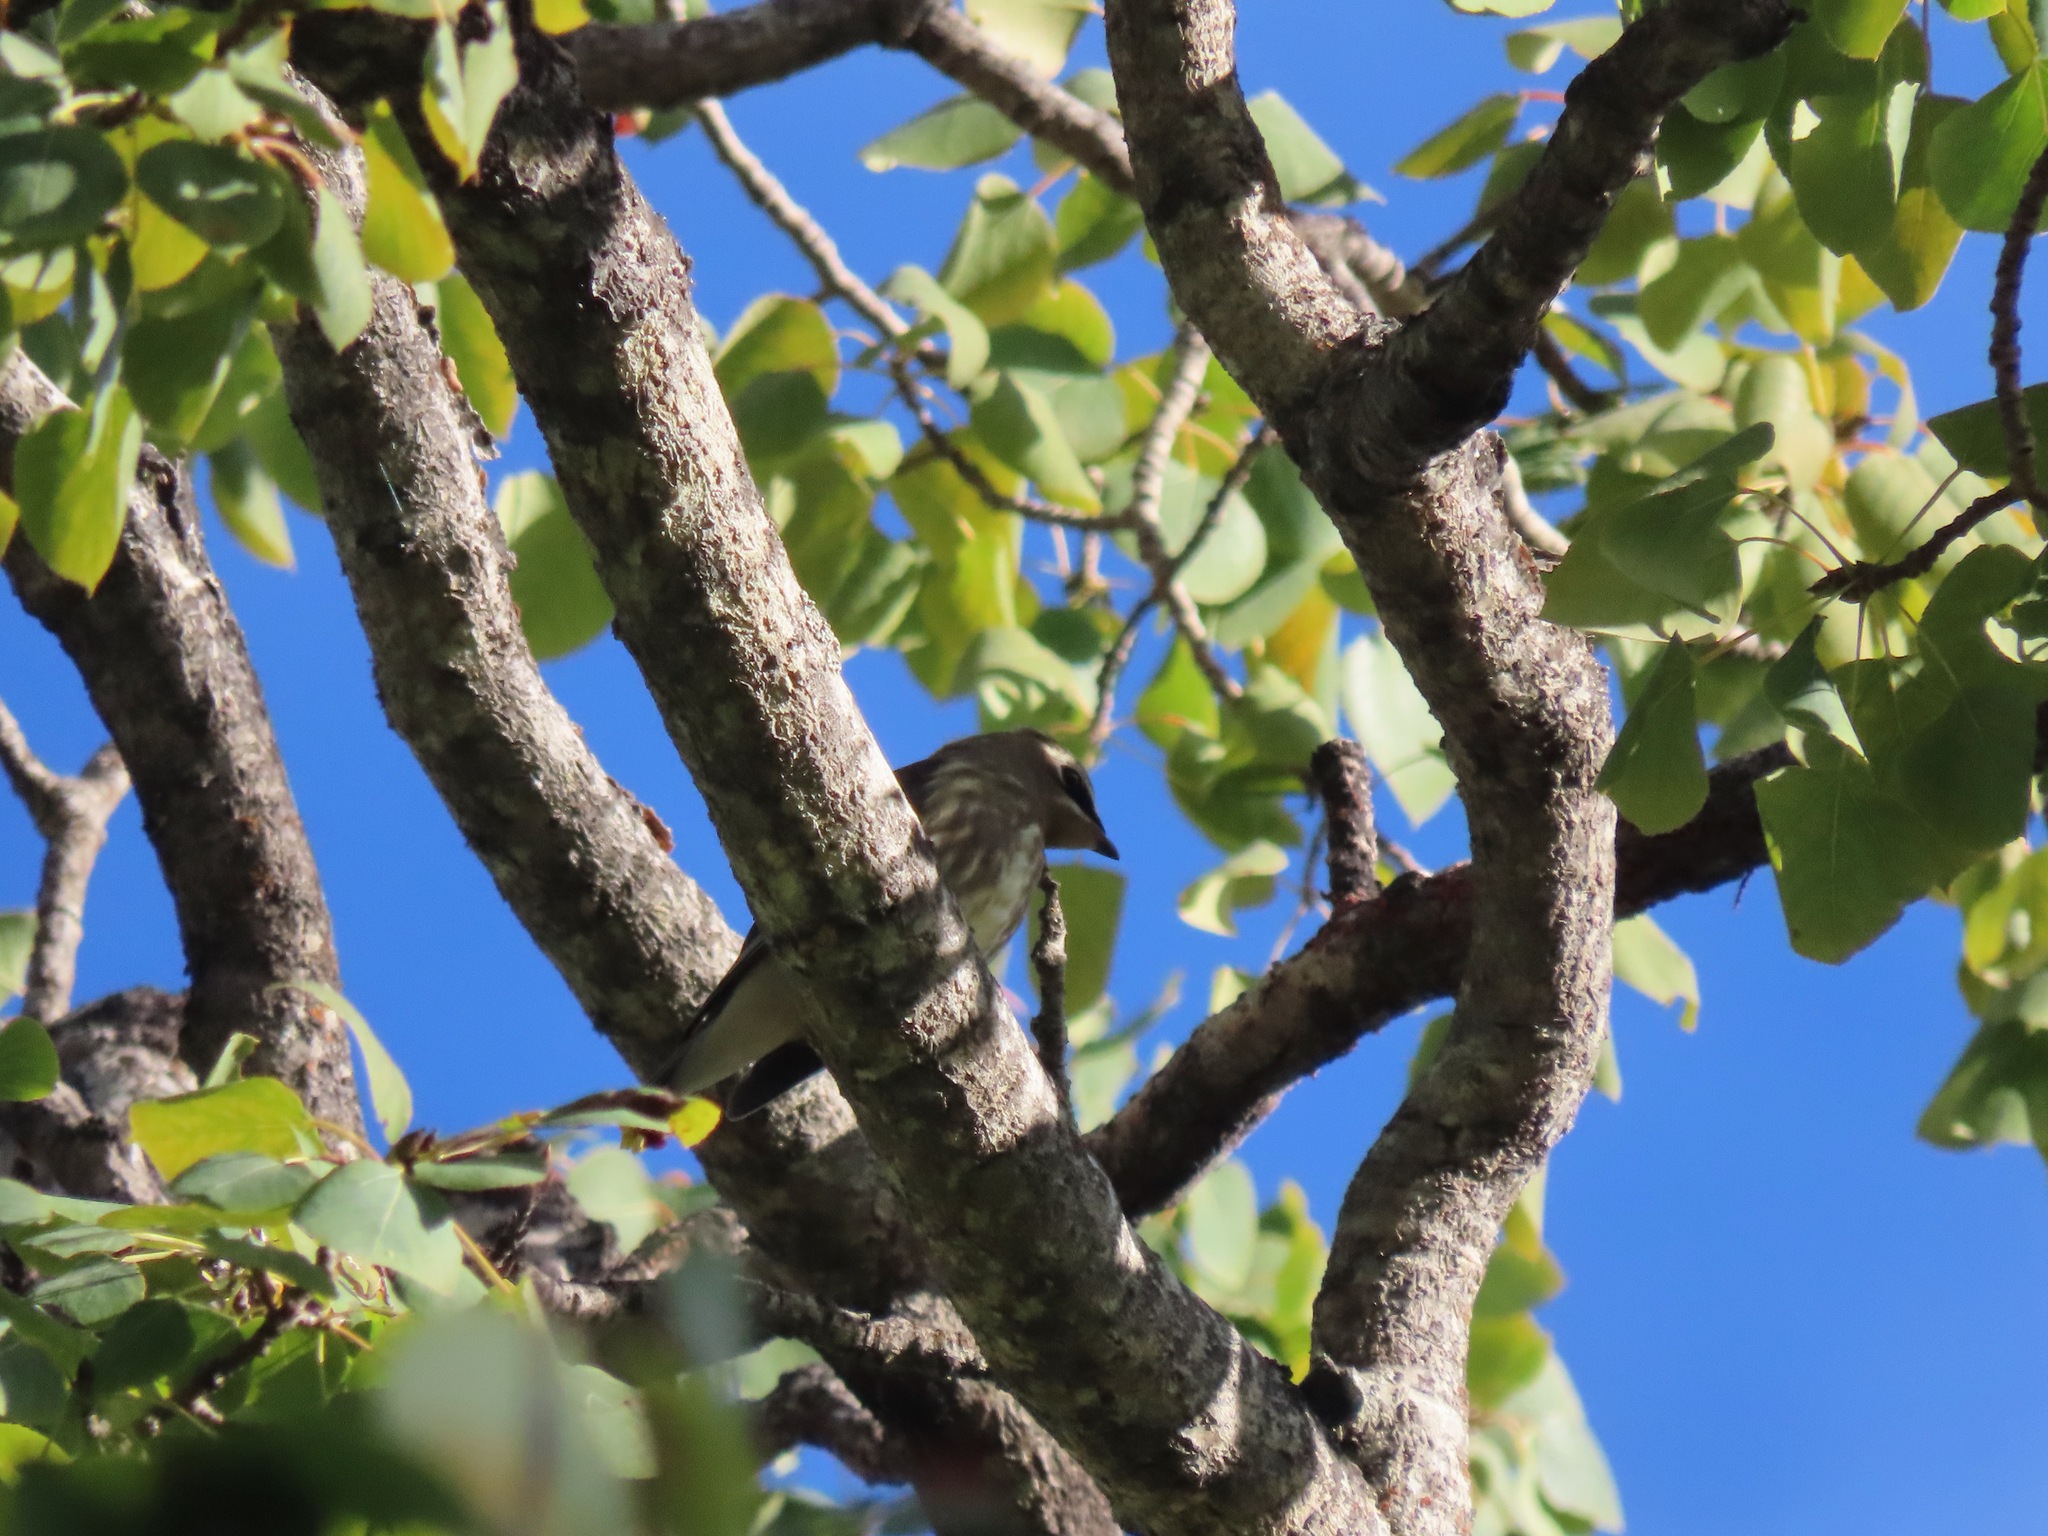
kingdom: Animalia
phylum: Chordata
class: Aves
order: Passeriformes
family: Bombycillidae
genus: Bombycilla
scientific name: Bombycilla cedrorum
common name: Cedar waxwing
